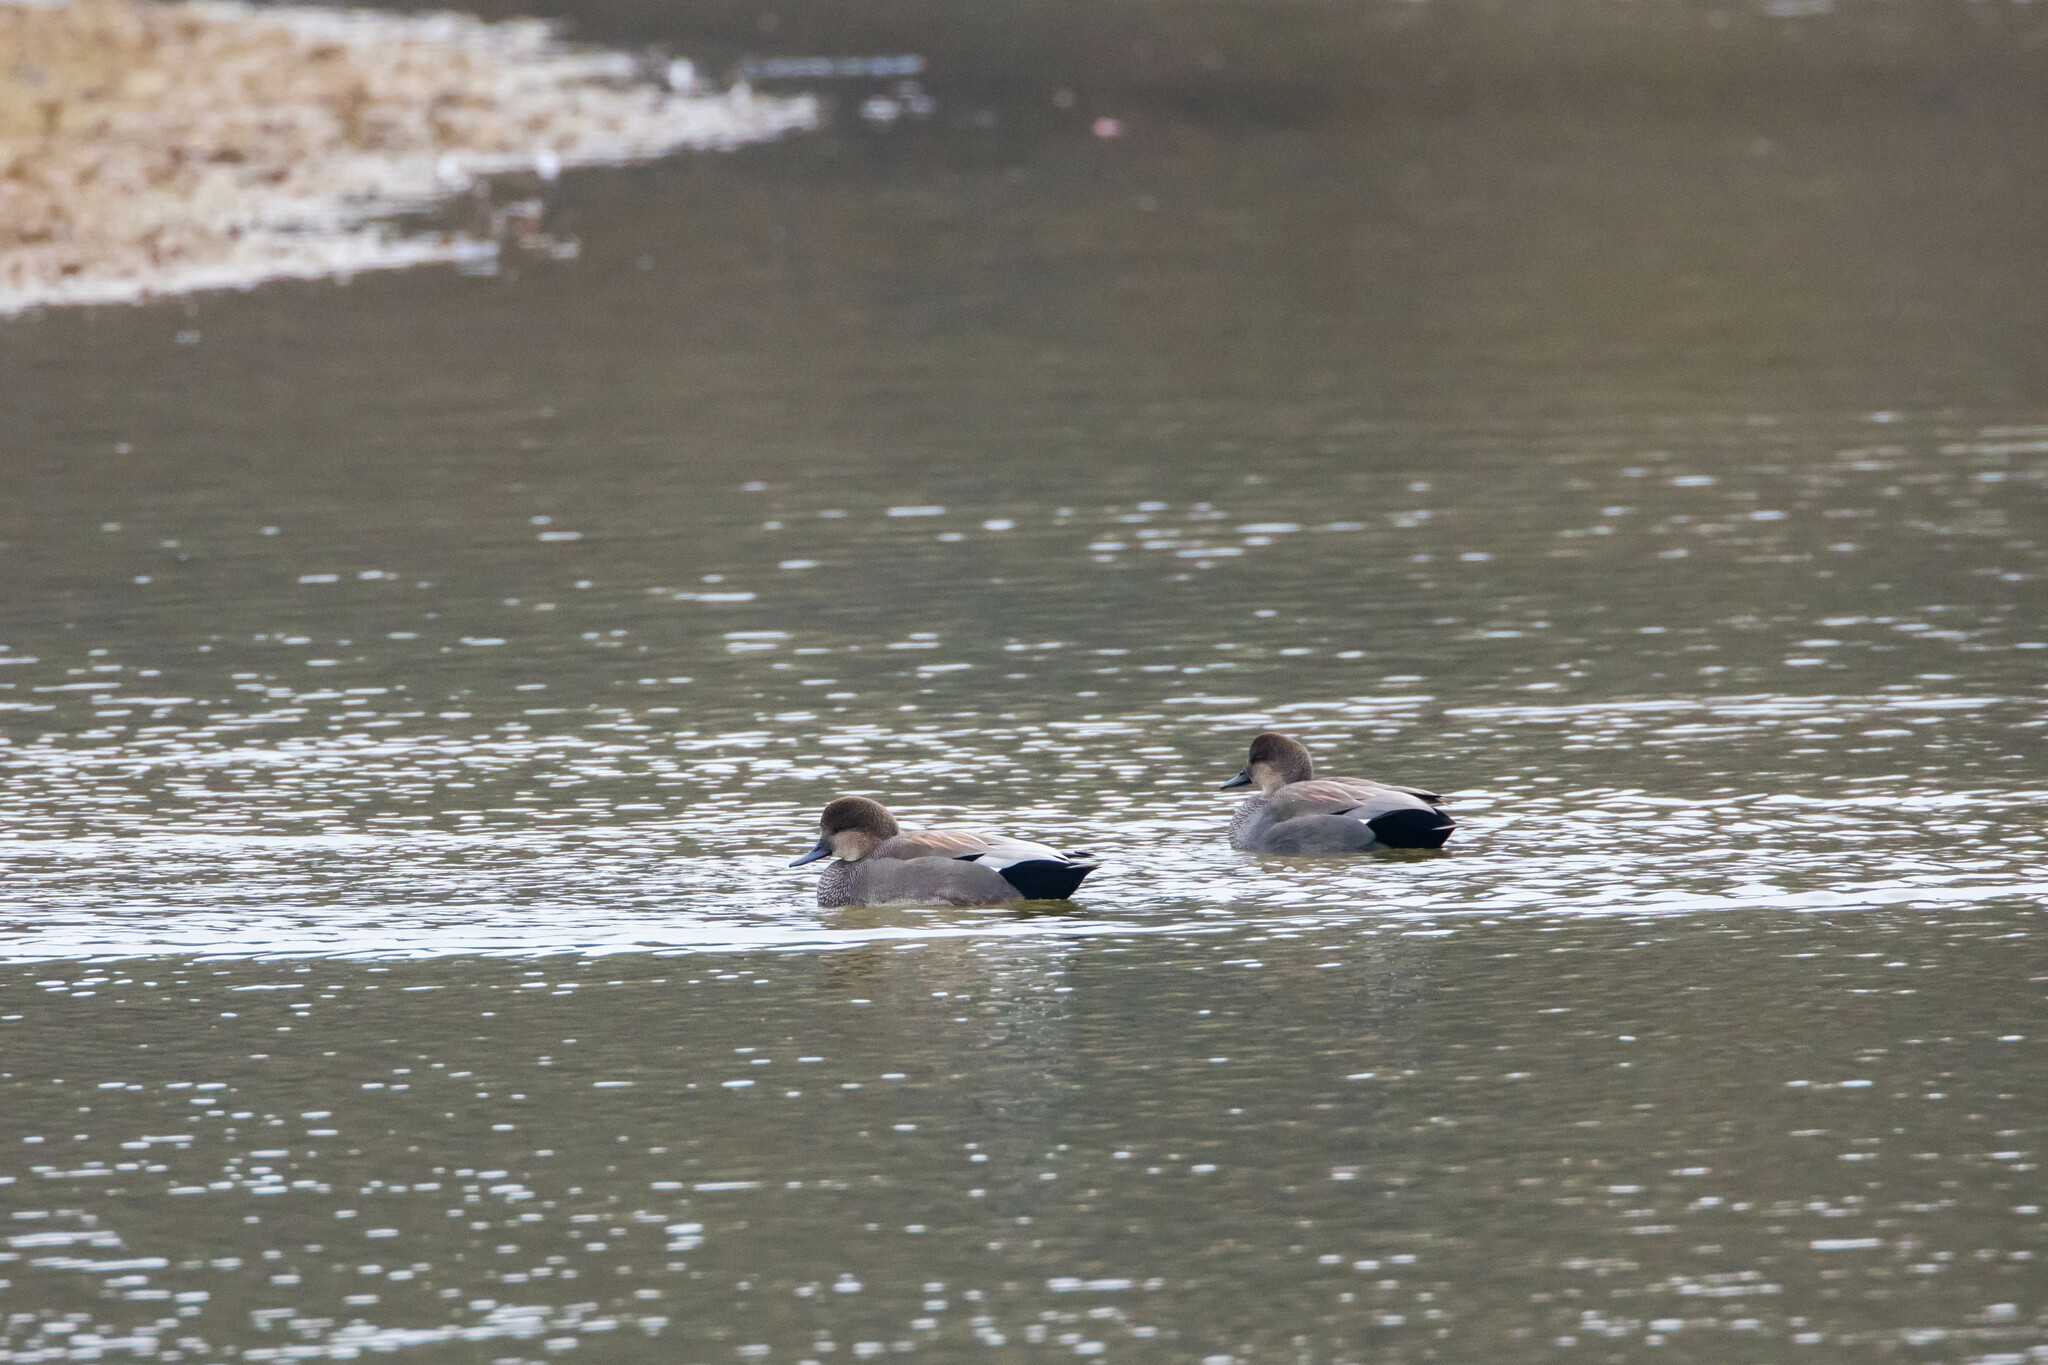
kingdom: Animalia
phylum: Chordata
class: Aves
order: Anseriformes
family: Anatidae
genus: Mareca
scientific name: Mareca strepera
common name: Gadwall
